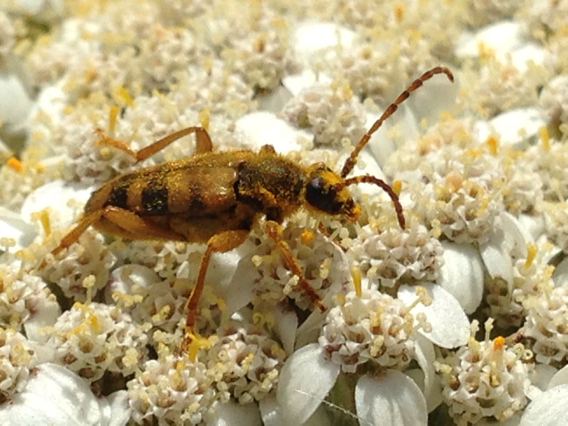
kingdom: Animalia
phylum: Arthropoda
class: Insecta
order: Coleoptera
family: Cerambycidae
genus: Xestoleptura
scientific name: Xestoleptura crassicornis
